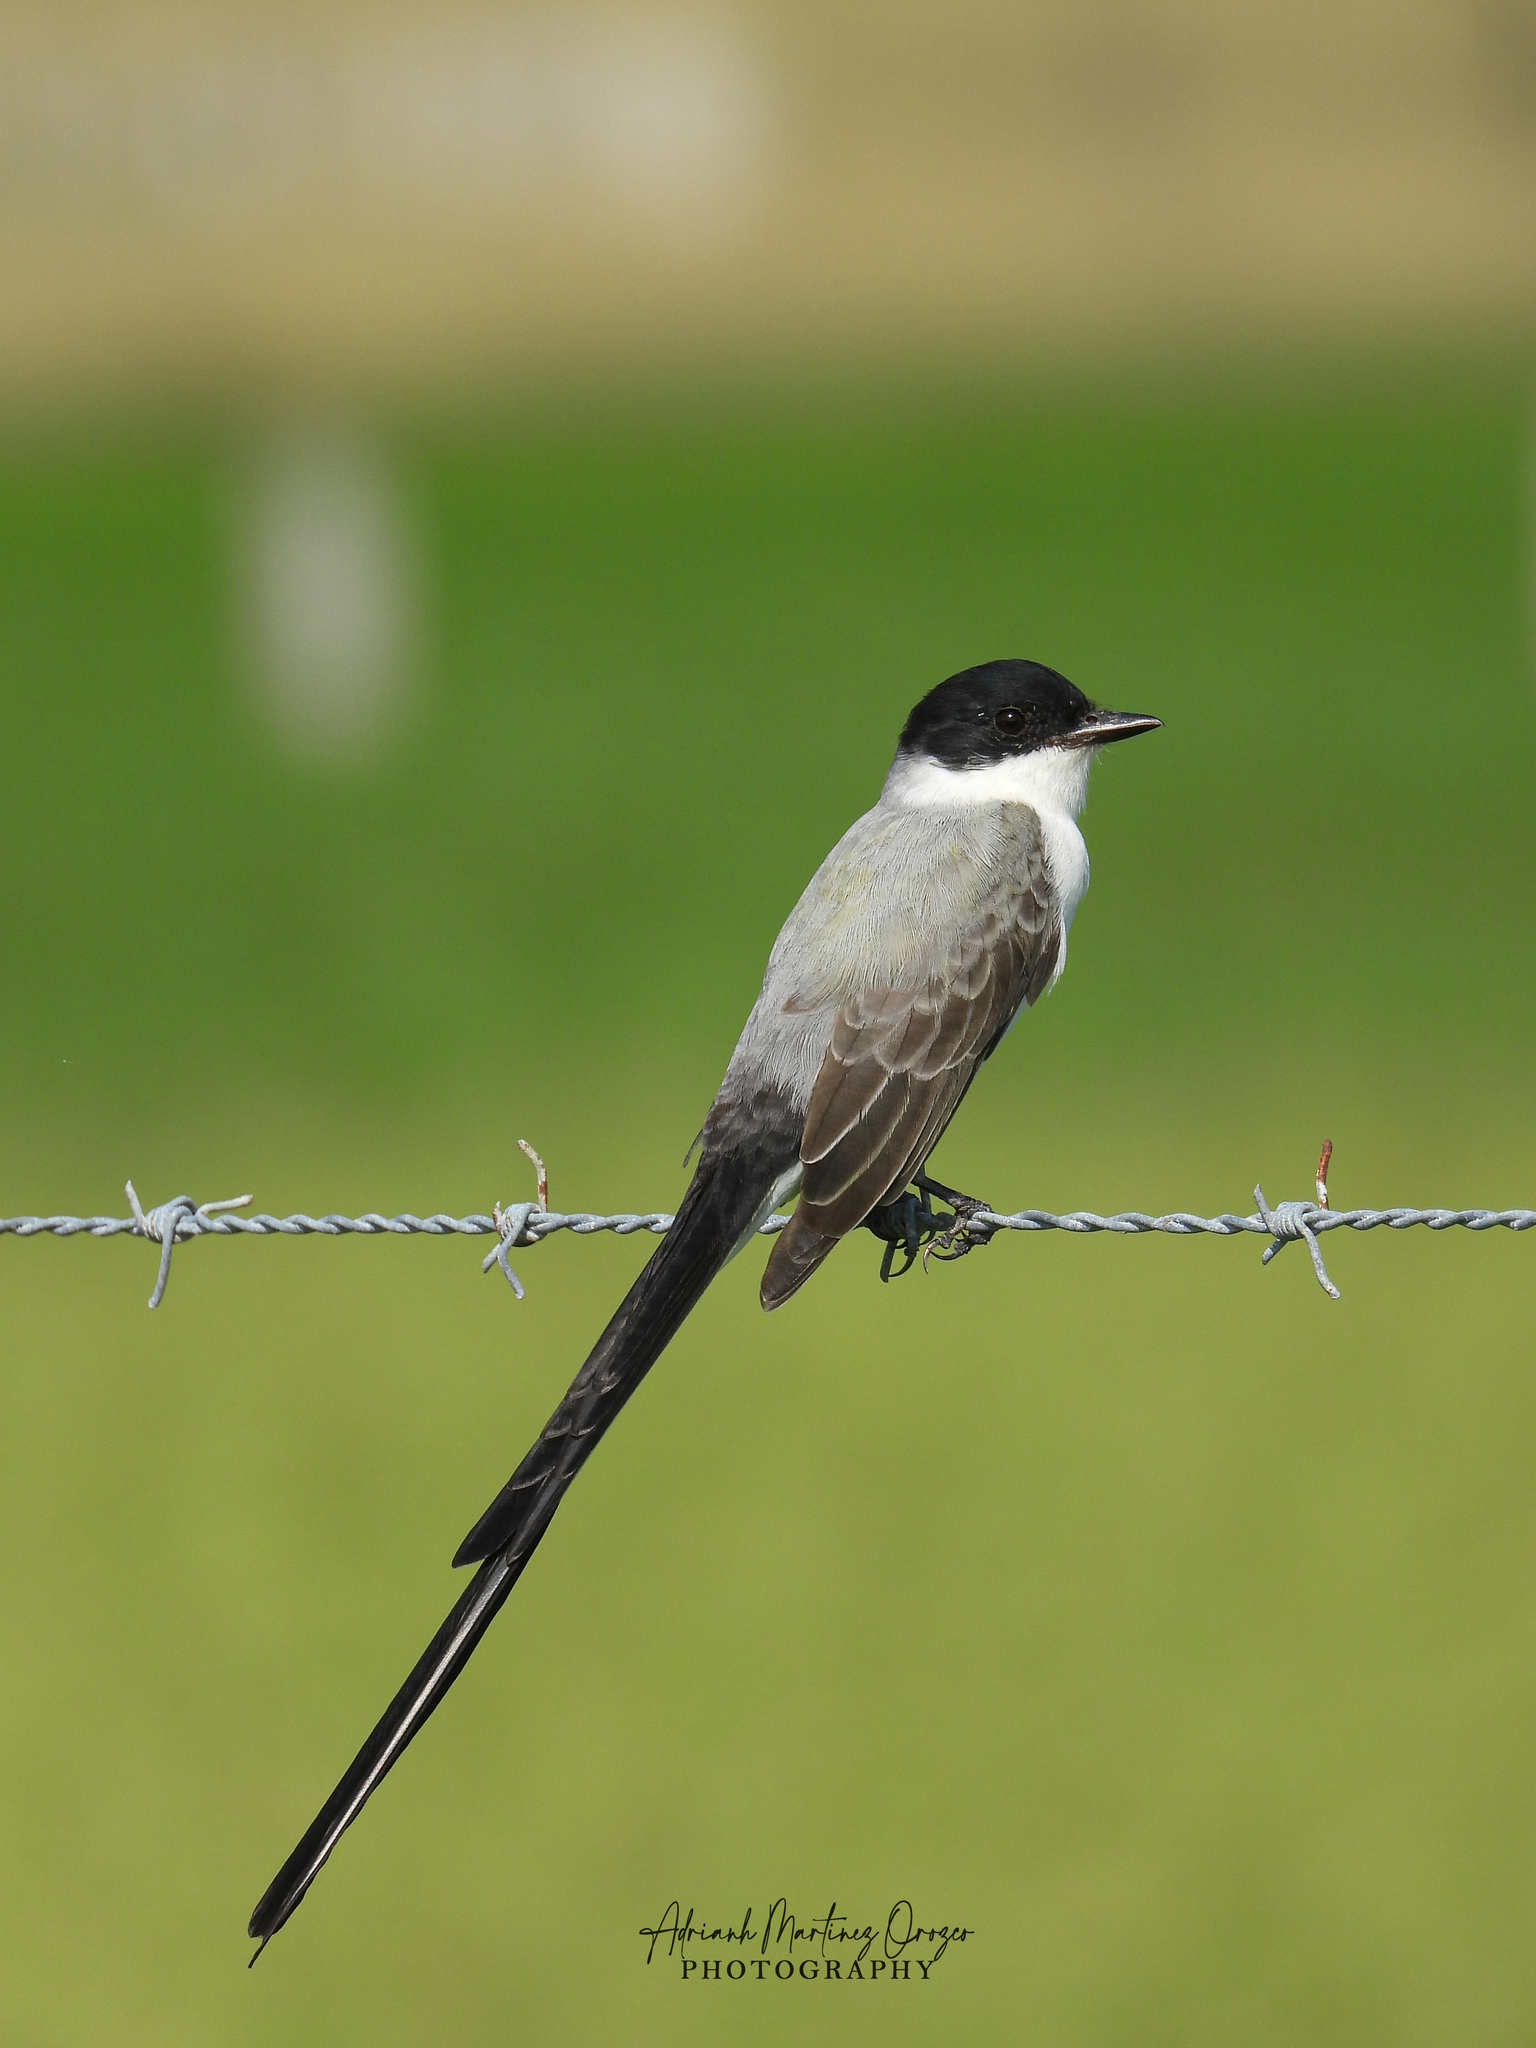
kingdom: Animalia
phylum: Chordata
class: Aves
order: Passeriformes
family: Tyrannidae
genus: Tyrannus
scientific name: Tyrannus savana
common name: Fork-tailed flycatcher
